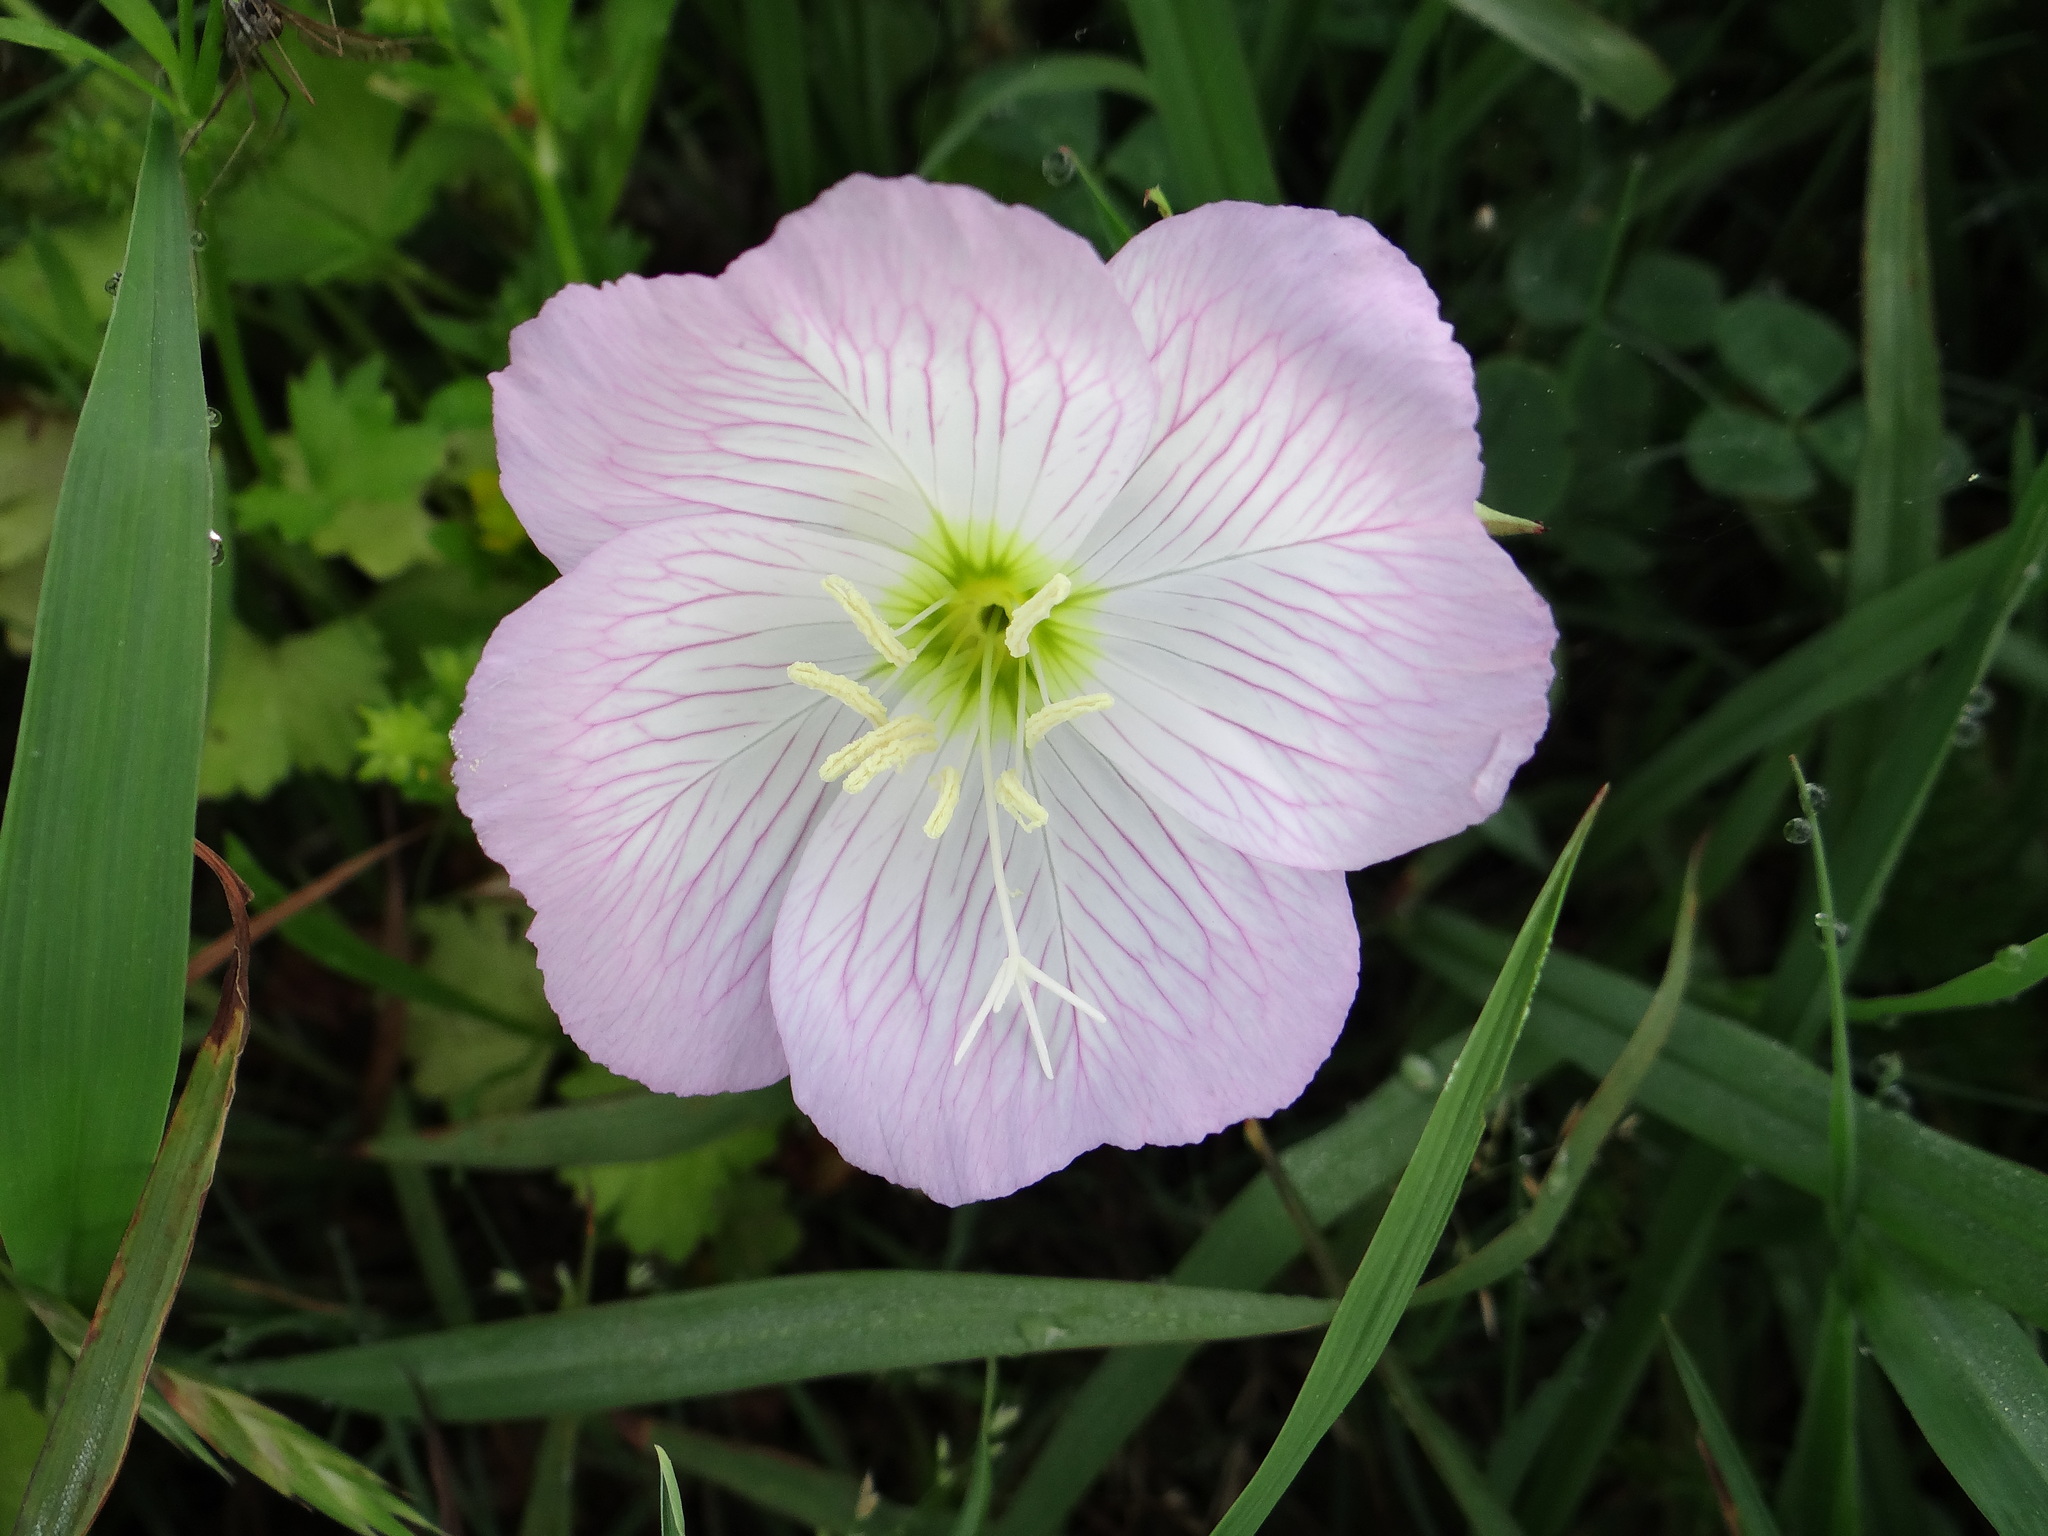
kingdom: Plantae
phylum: Tracheophyta
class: Magnoliopsida
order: Myrtales
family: Onagraceae
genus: Oenothera
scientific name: Oenothera speciosa
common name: White evening-primrose
